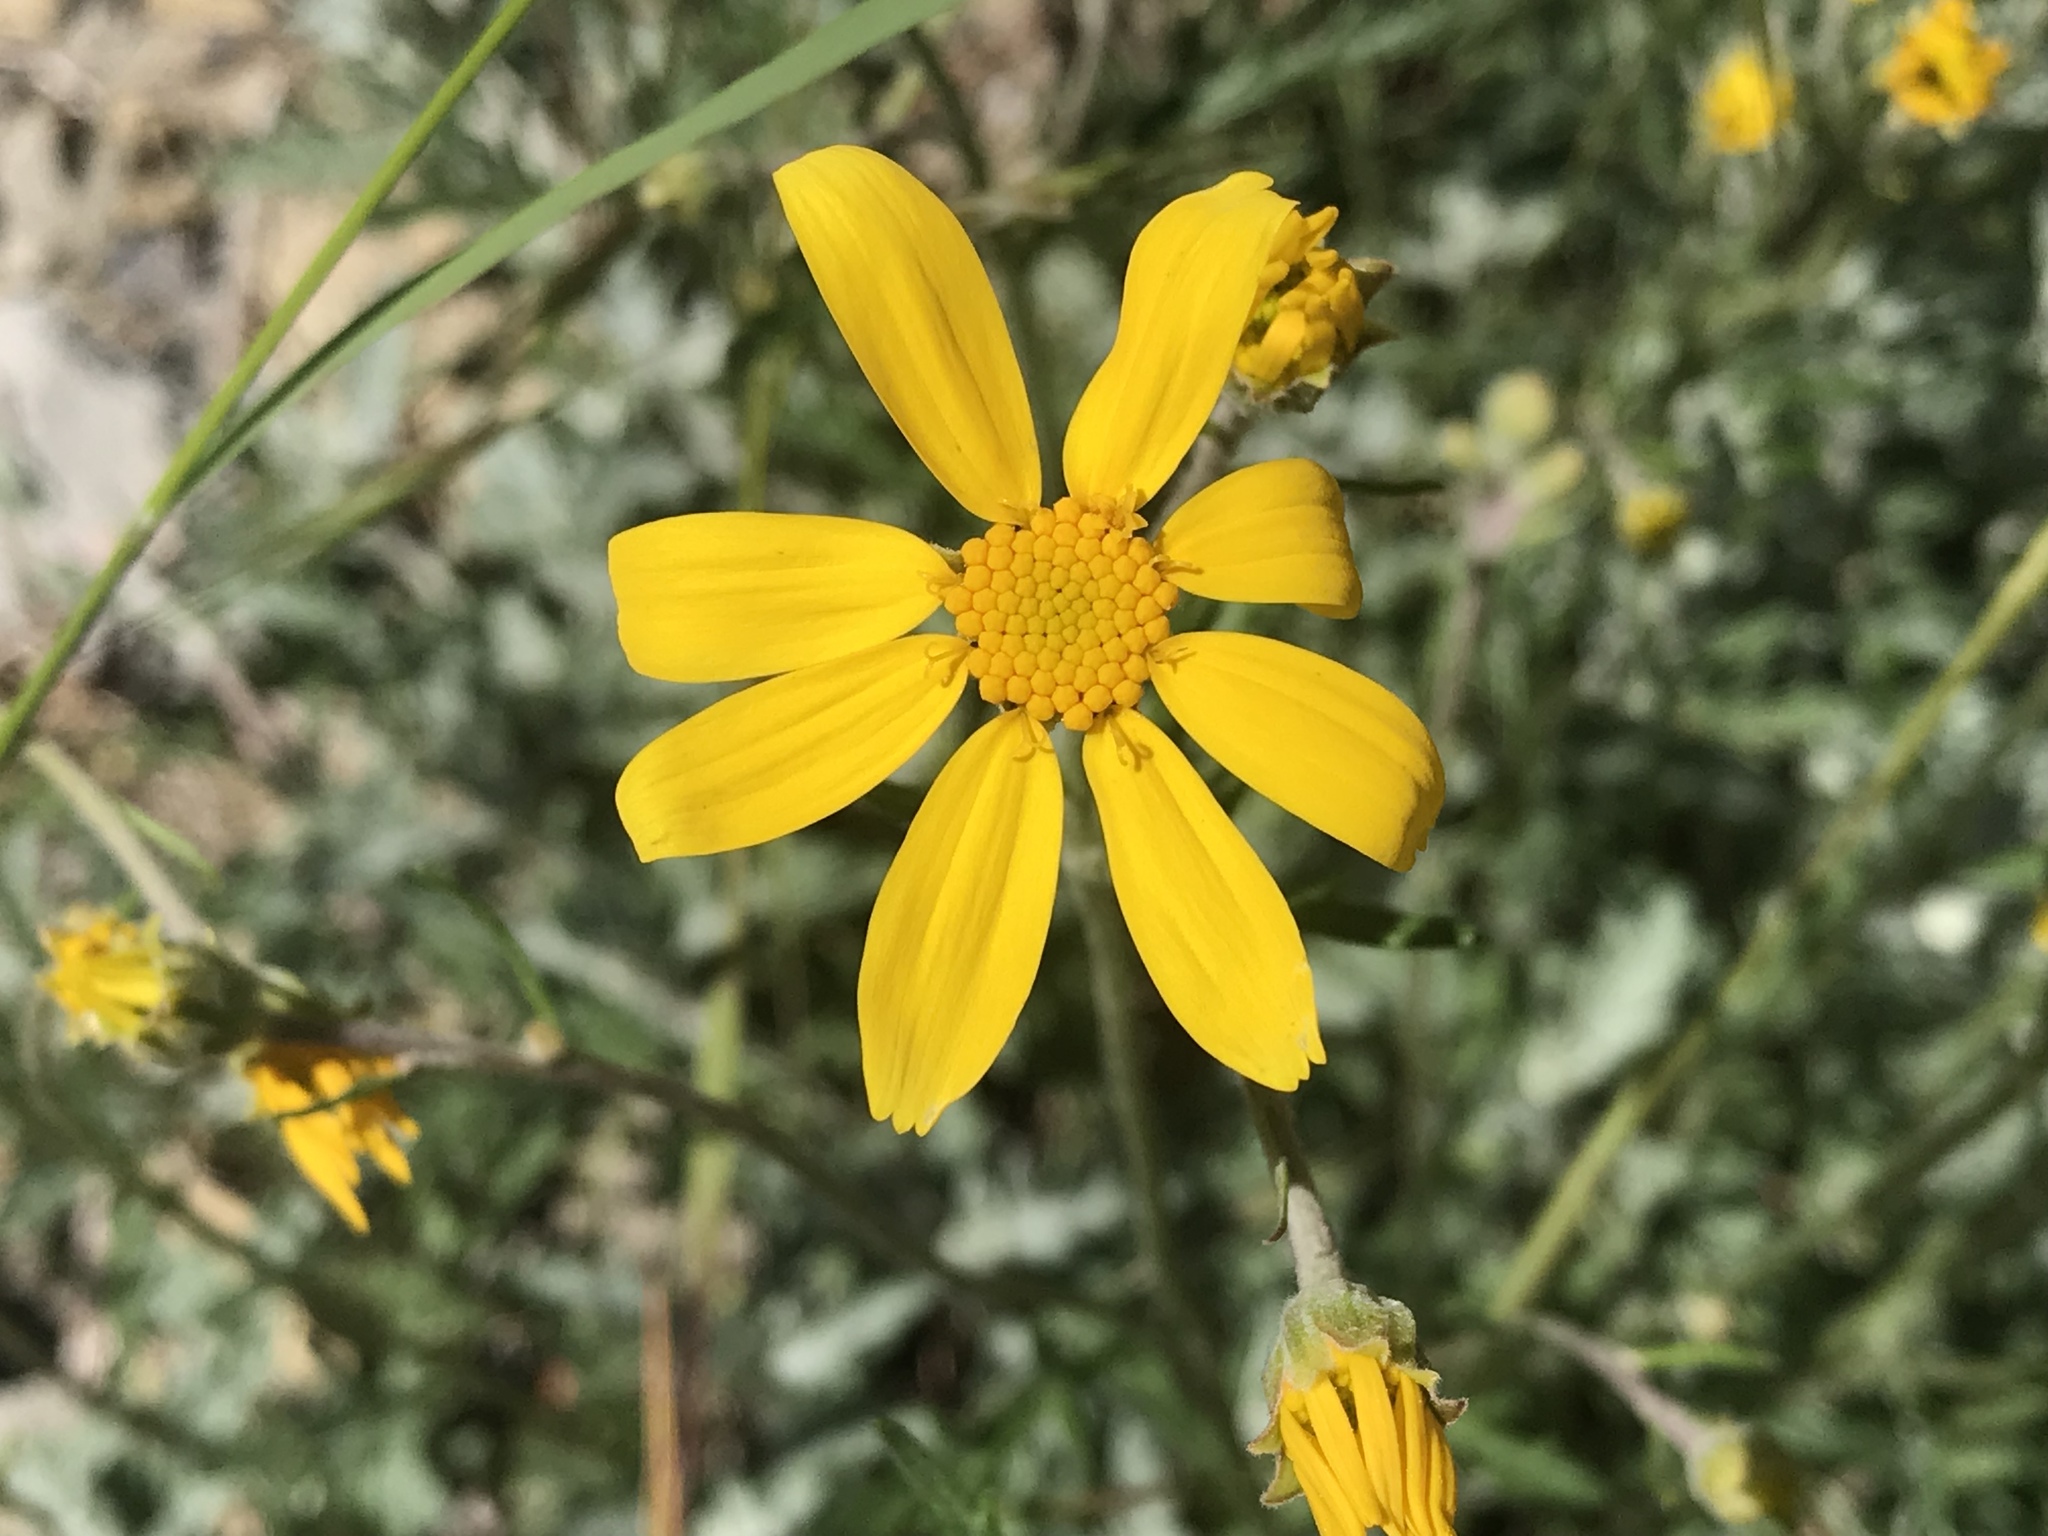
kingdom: Plantae
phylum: Tracheophyta
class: Magnoliopsida
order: Asterales
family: Asteraceae
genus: Eriophyllum
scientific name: Eriophyllum lanatum
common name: Common woolly-sunflower
